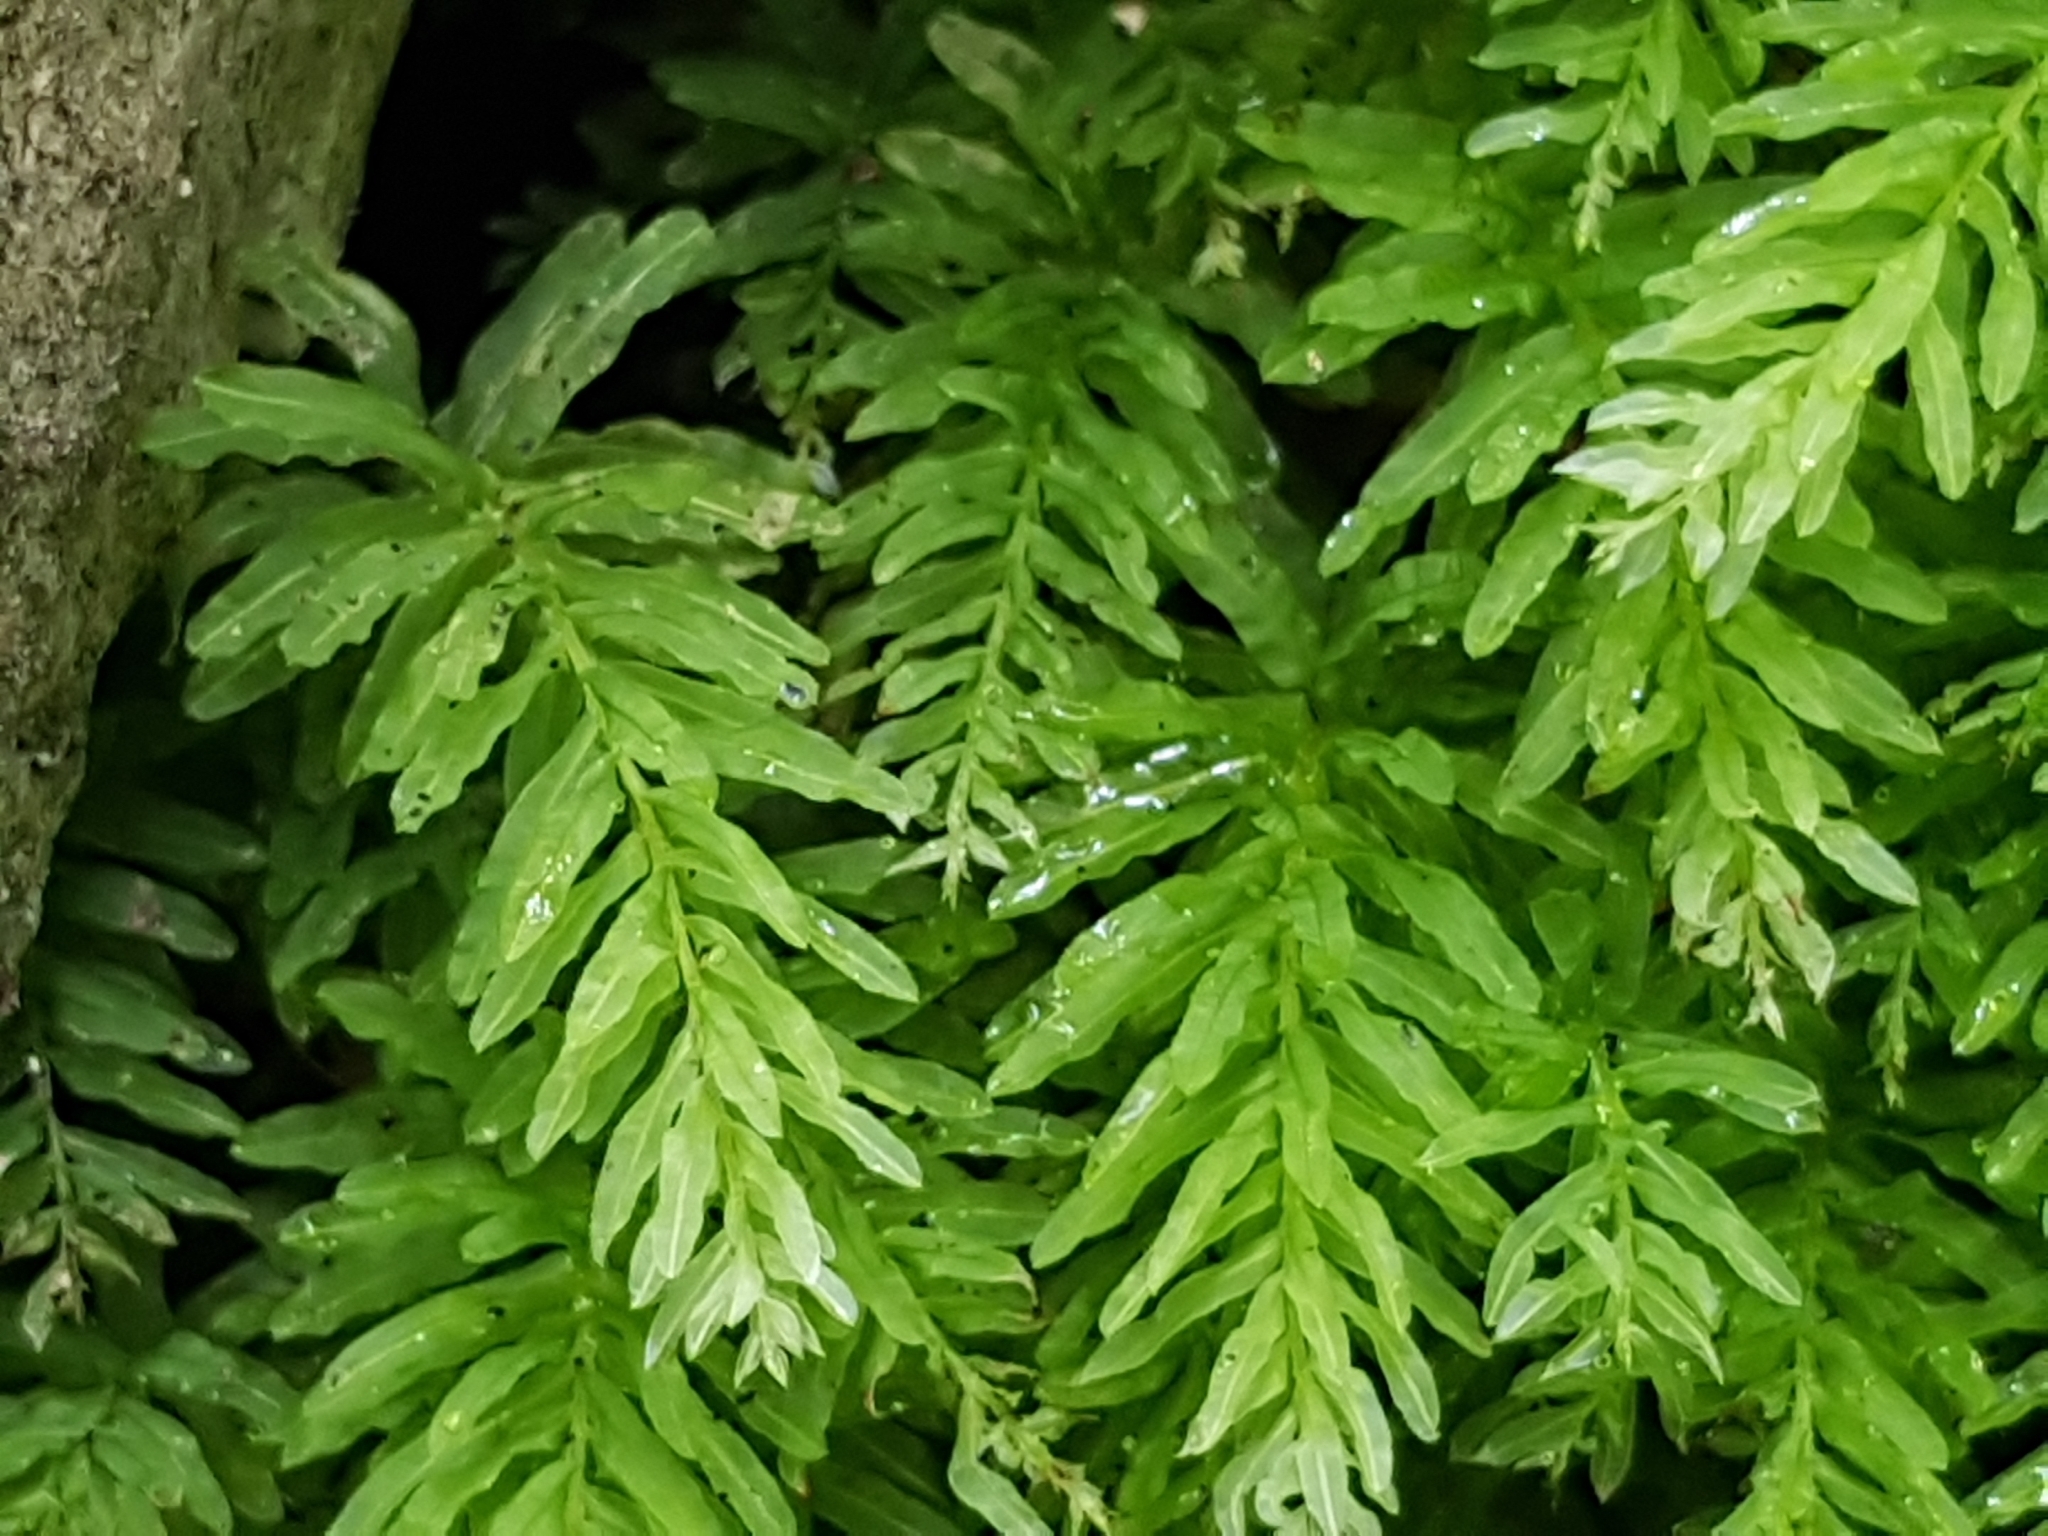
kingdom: Plantae
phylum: Bryophyta
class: Bryopsida
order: Bryales
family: Mniaceae
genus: Plagiomnium
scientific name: Plagiomnium undulatum
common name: Hart's-tongue thyme-moss
